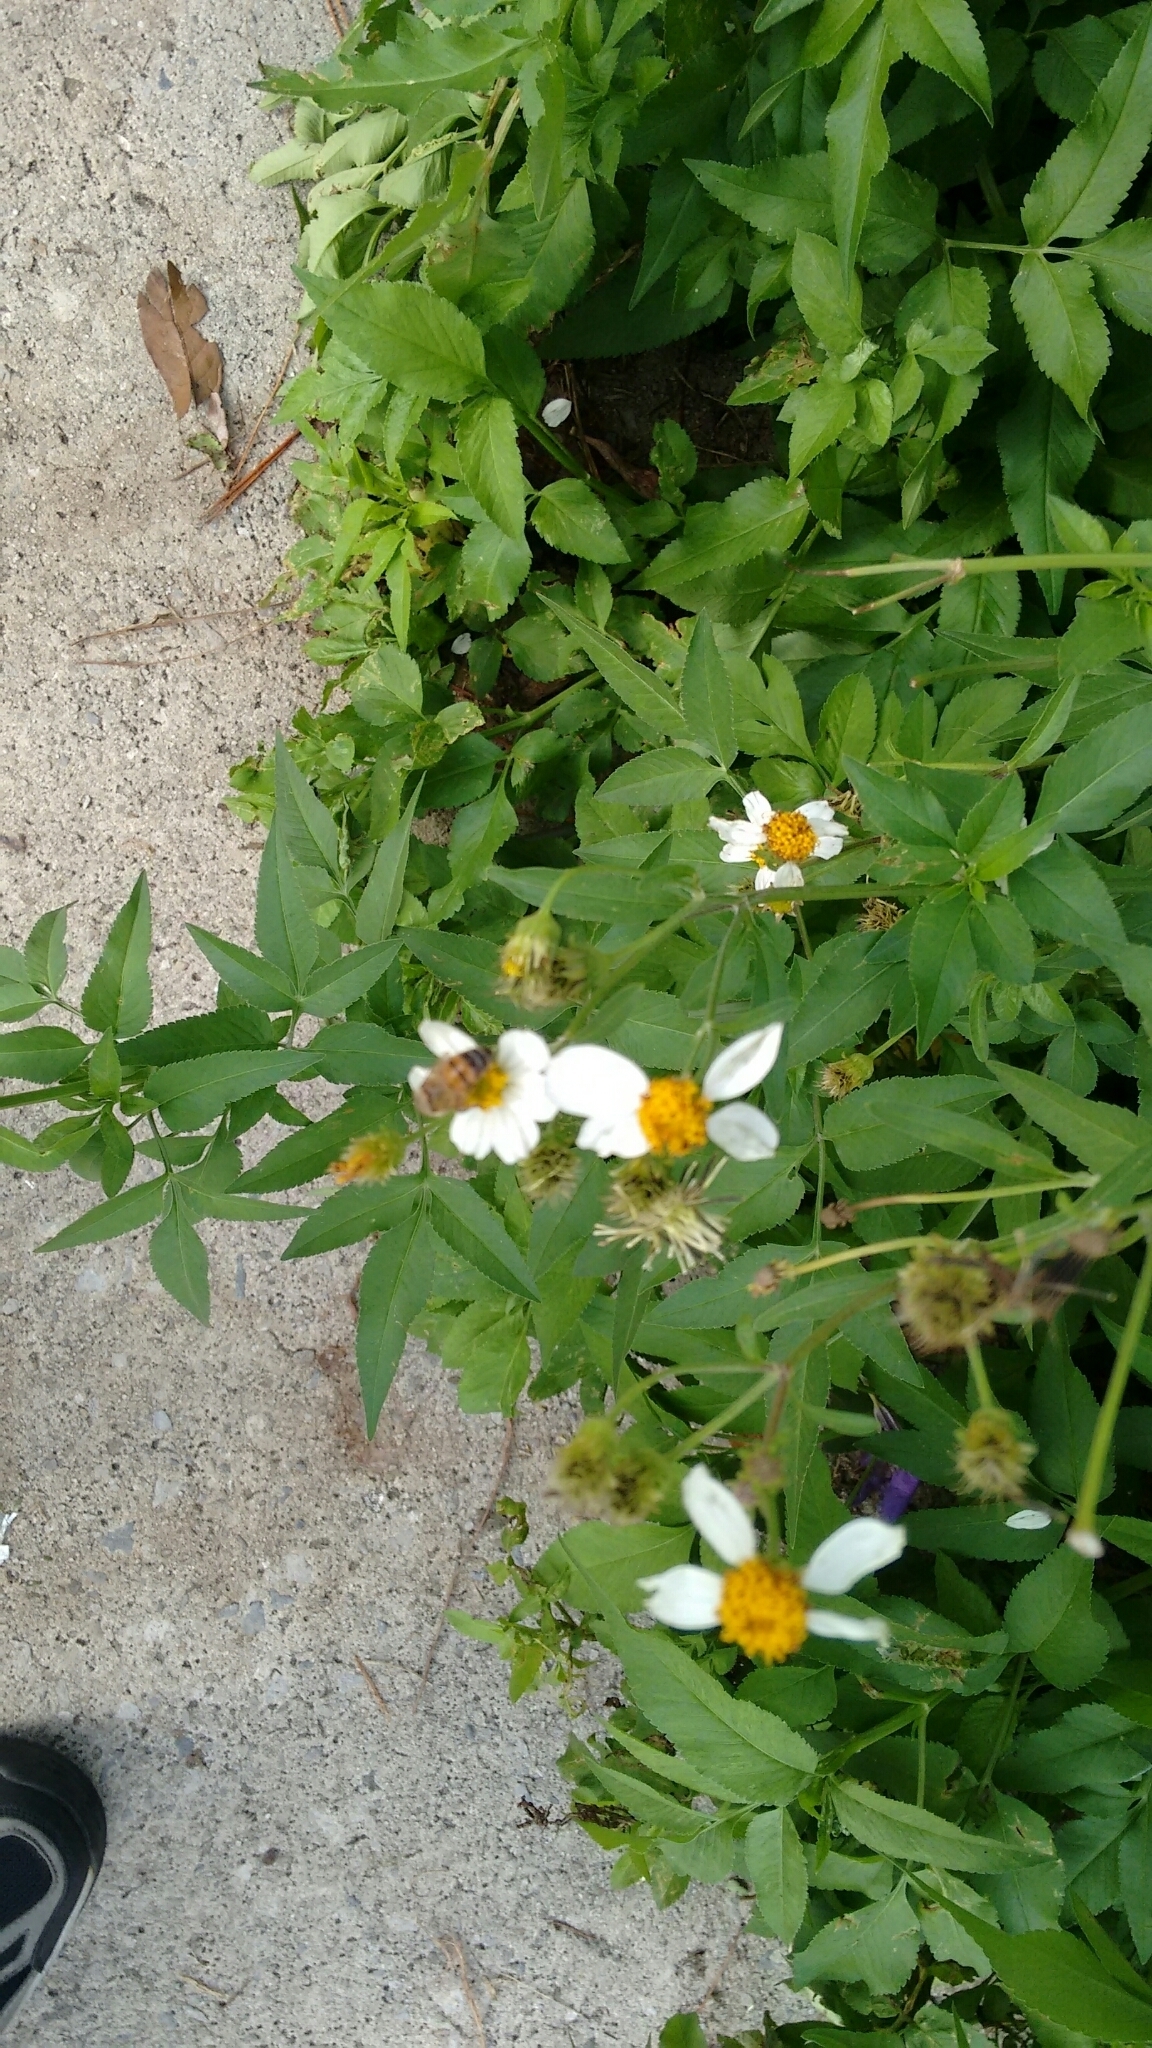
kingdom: Animalia
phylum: Arthropoda
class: Insecta
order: Hymenoptera
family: Apidae
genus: Apis
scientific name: Apis mellifera
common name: Honey bee
